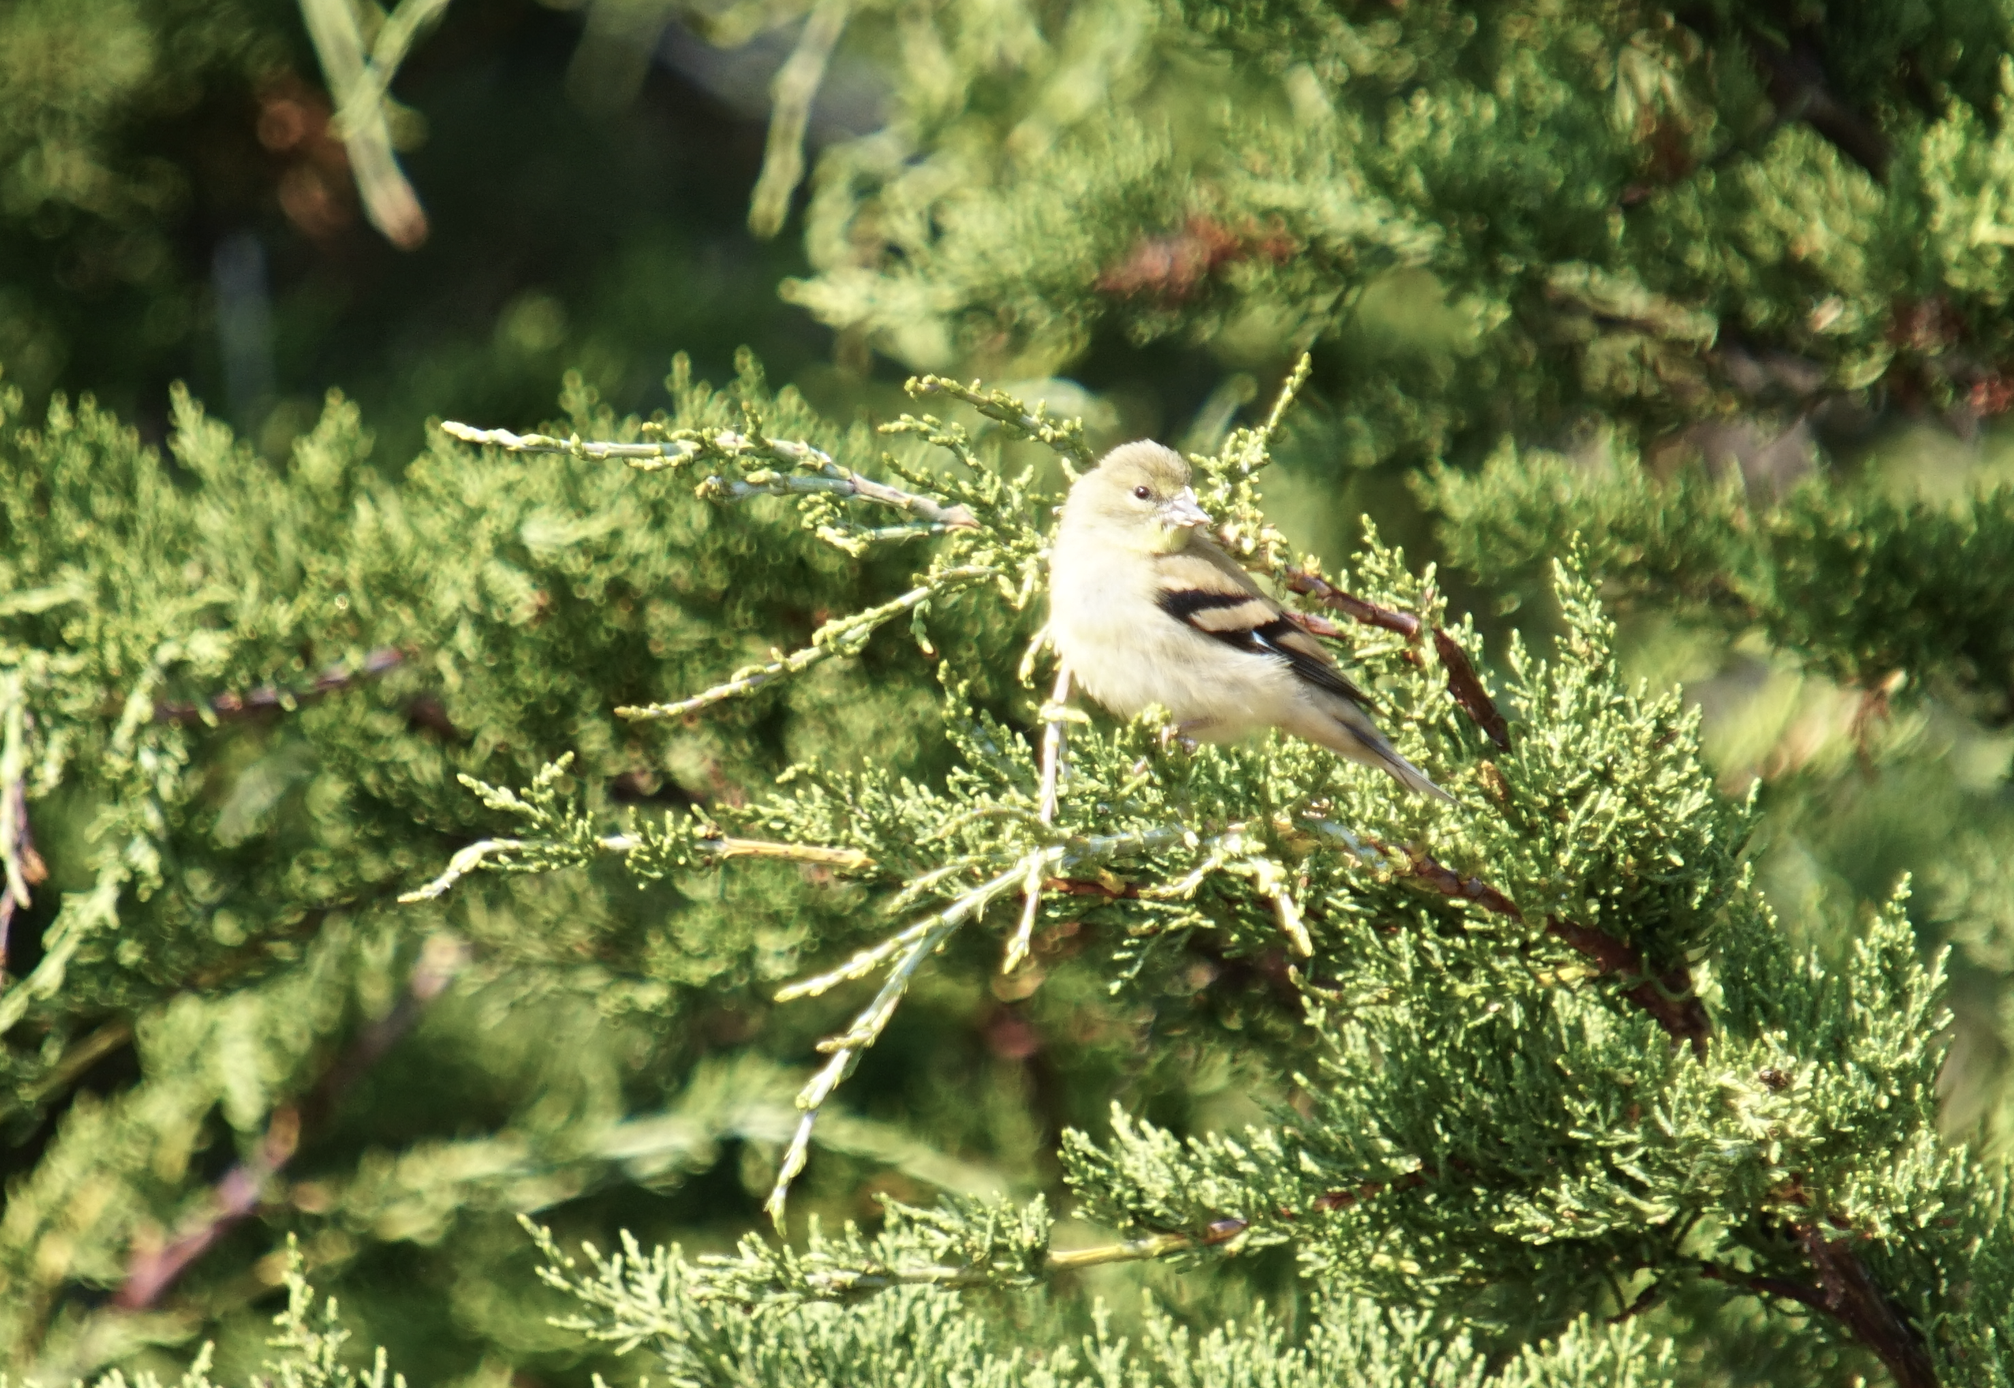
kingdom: Animalia
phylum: Chordata
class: Aves
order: Passeriformes
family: Fringillidae
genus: Spinus
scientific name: Spinus tristis
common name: American goldfinch
